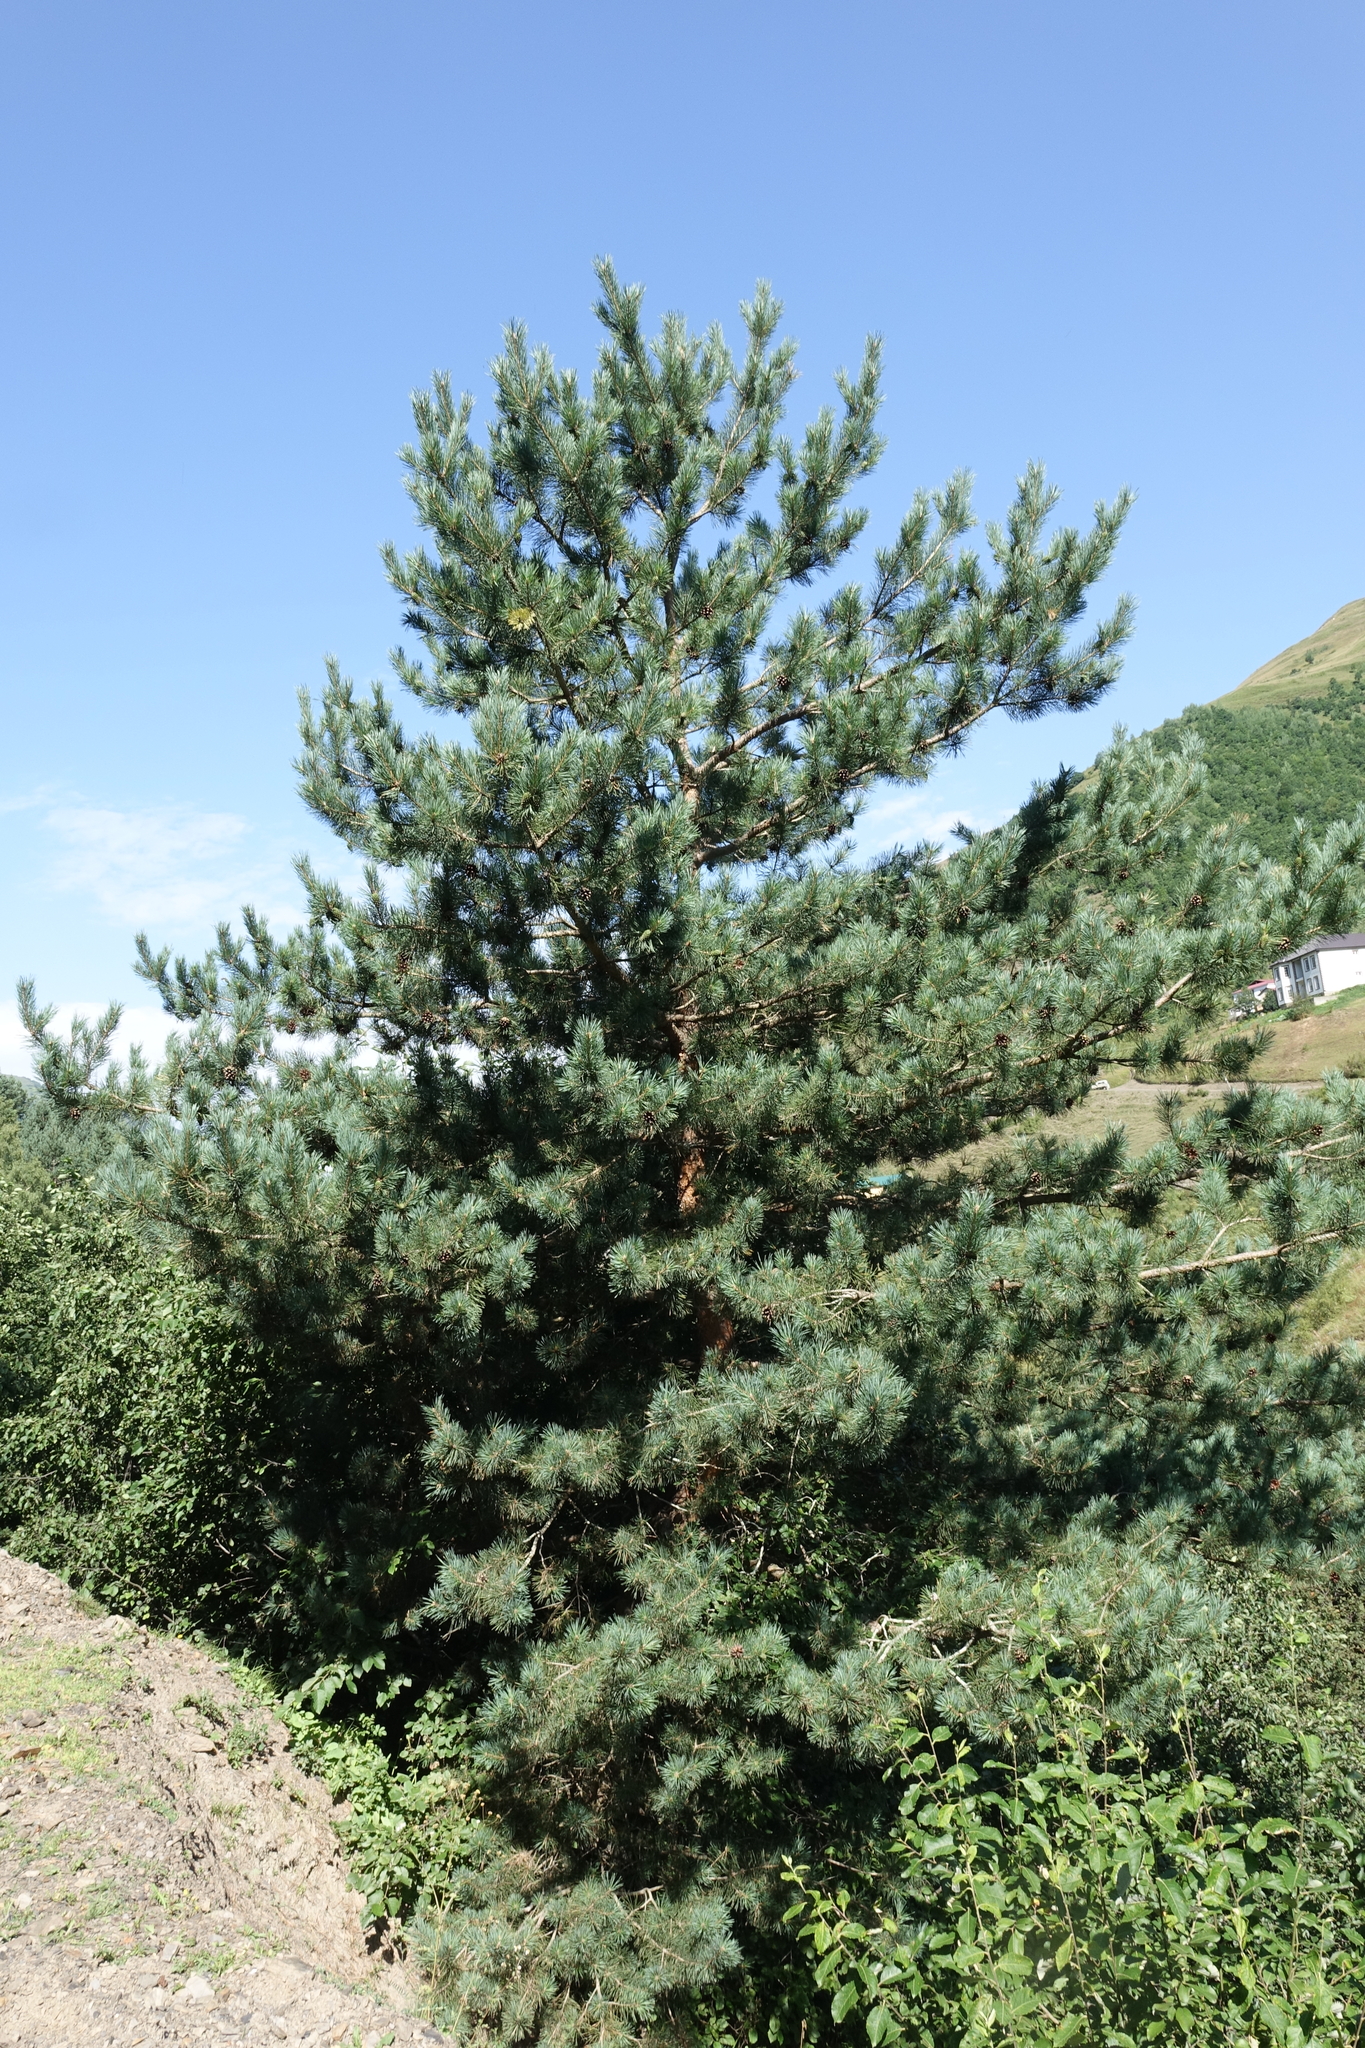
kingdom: Plantae
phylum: Tracheophyta
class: Pinopsida
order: Pinales
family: Pinaceae
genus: Pinus
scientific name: Pinus sylvestris
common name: Scots pine
